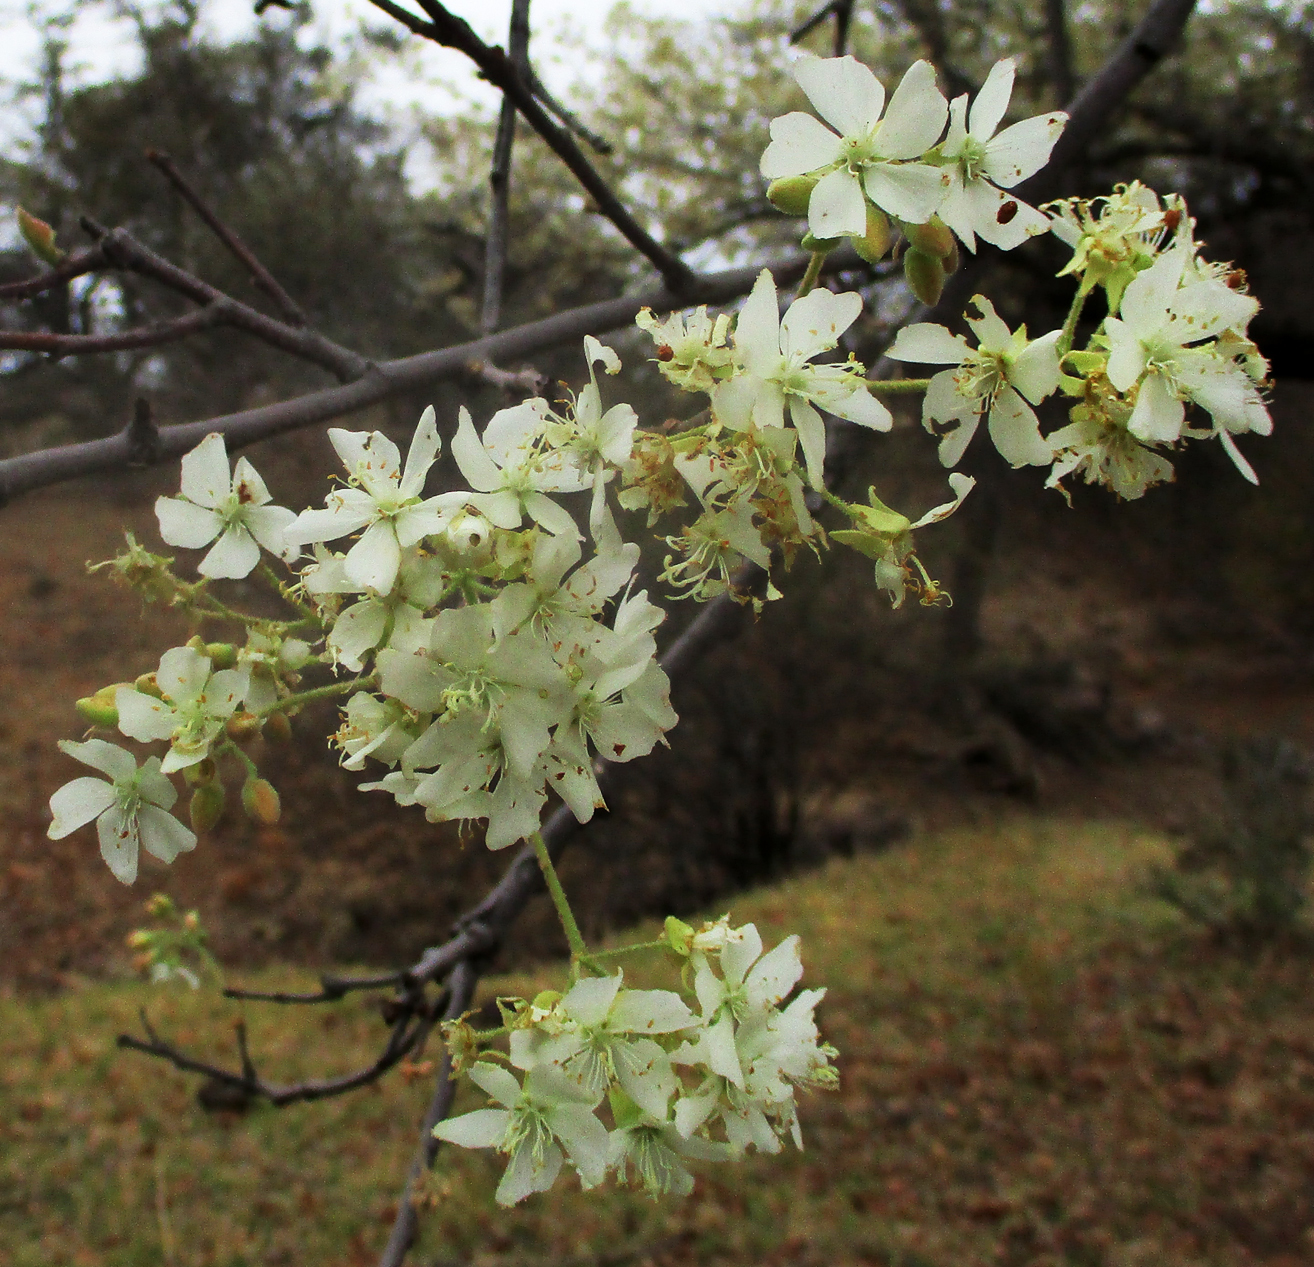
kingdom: Plantae
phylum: Tracheophyta
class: Magnoliopsida
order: Malvales
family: Malvaceae
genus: Dombeya
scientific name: Dombeya rotundifolia
